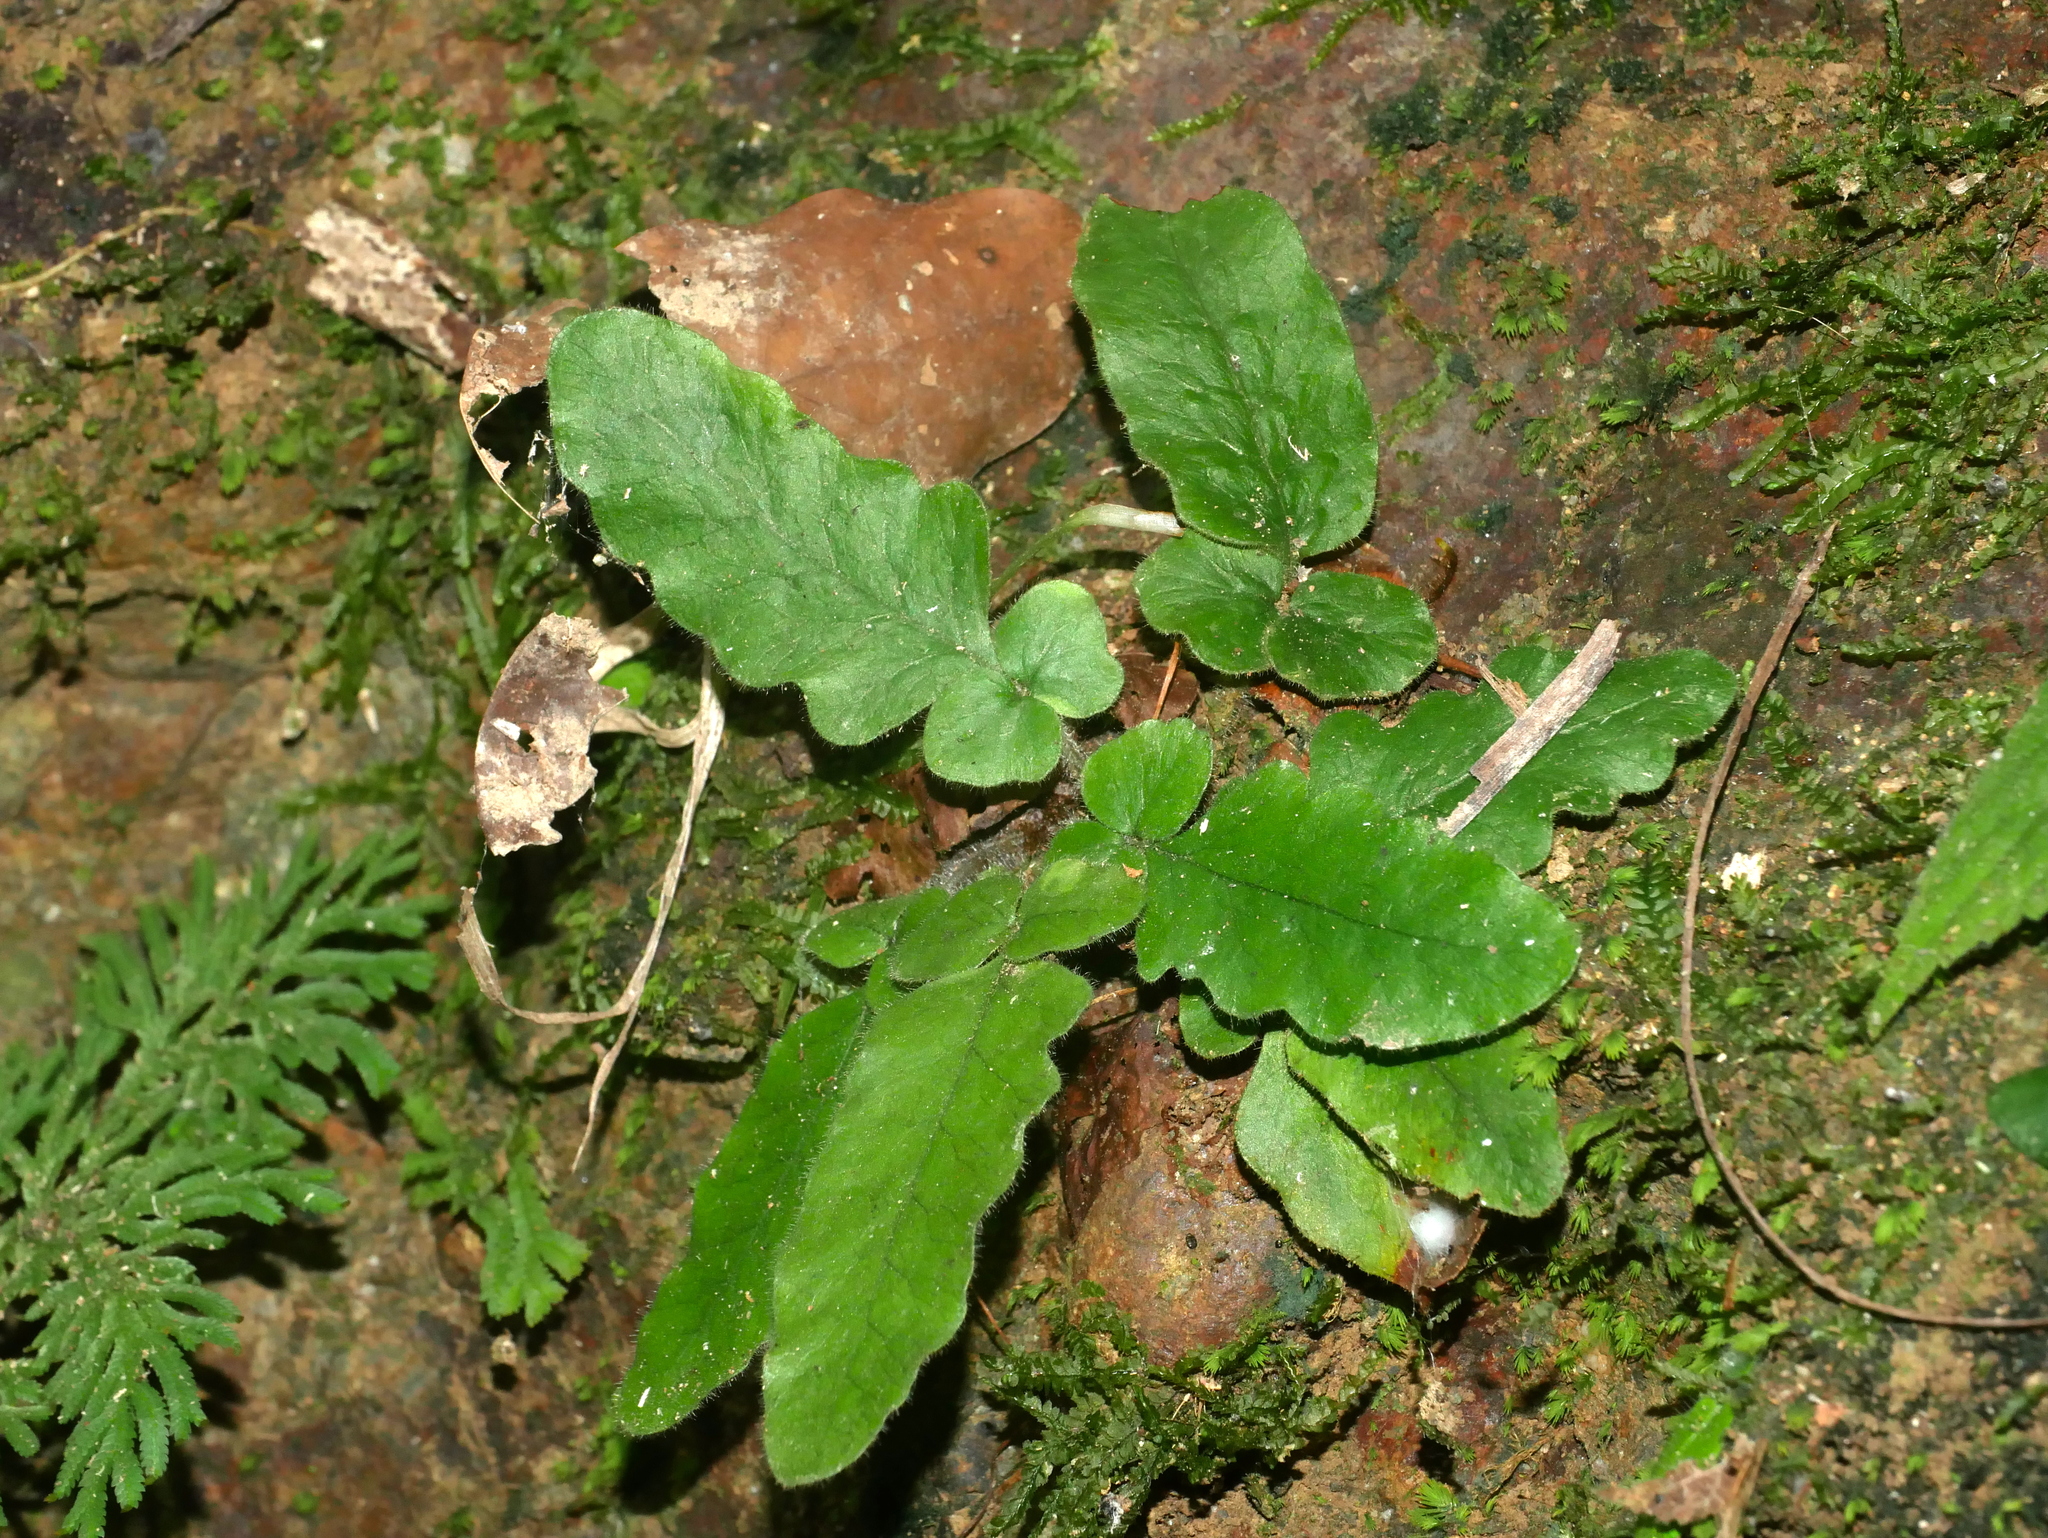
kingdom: Plantae
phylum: Tracheophyta
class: Polypodiopsida
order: Polypodiales
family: Tectariaceae
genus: Tectaria
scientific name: Tectaria zeilanica
